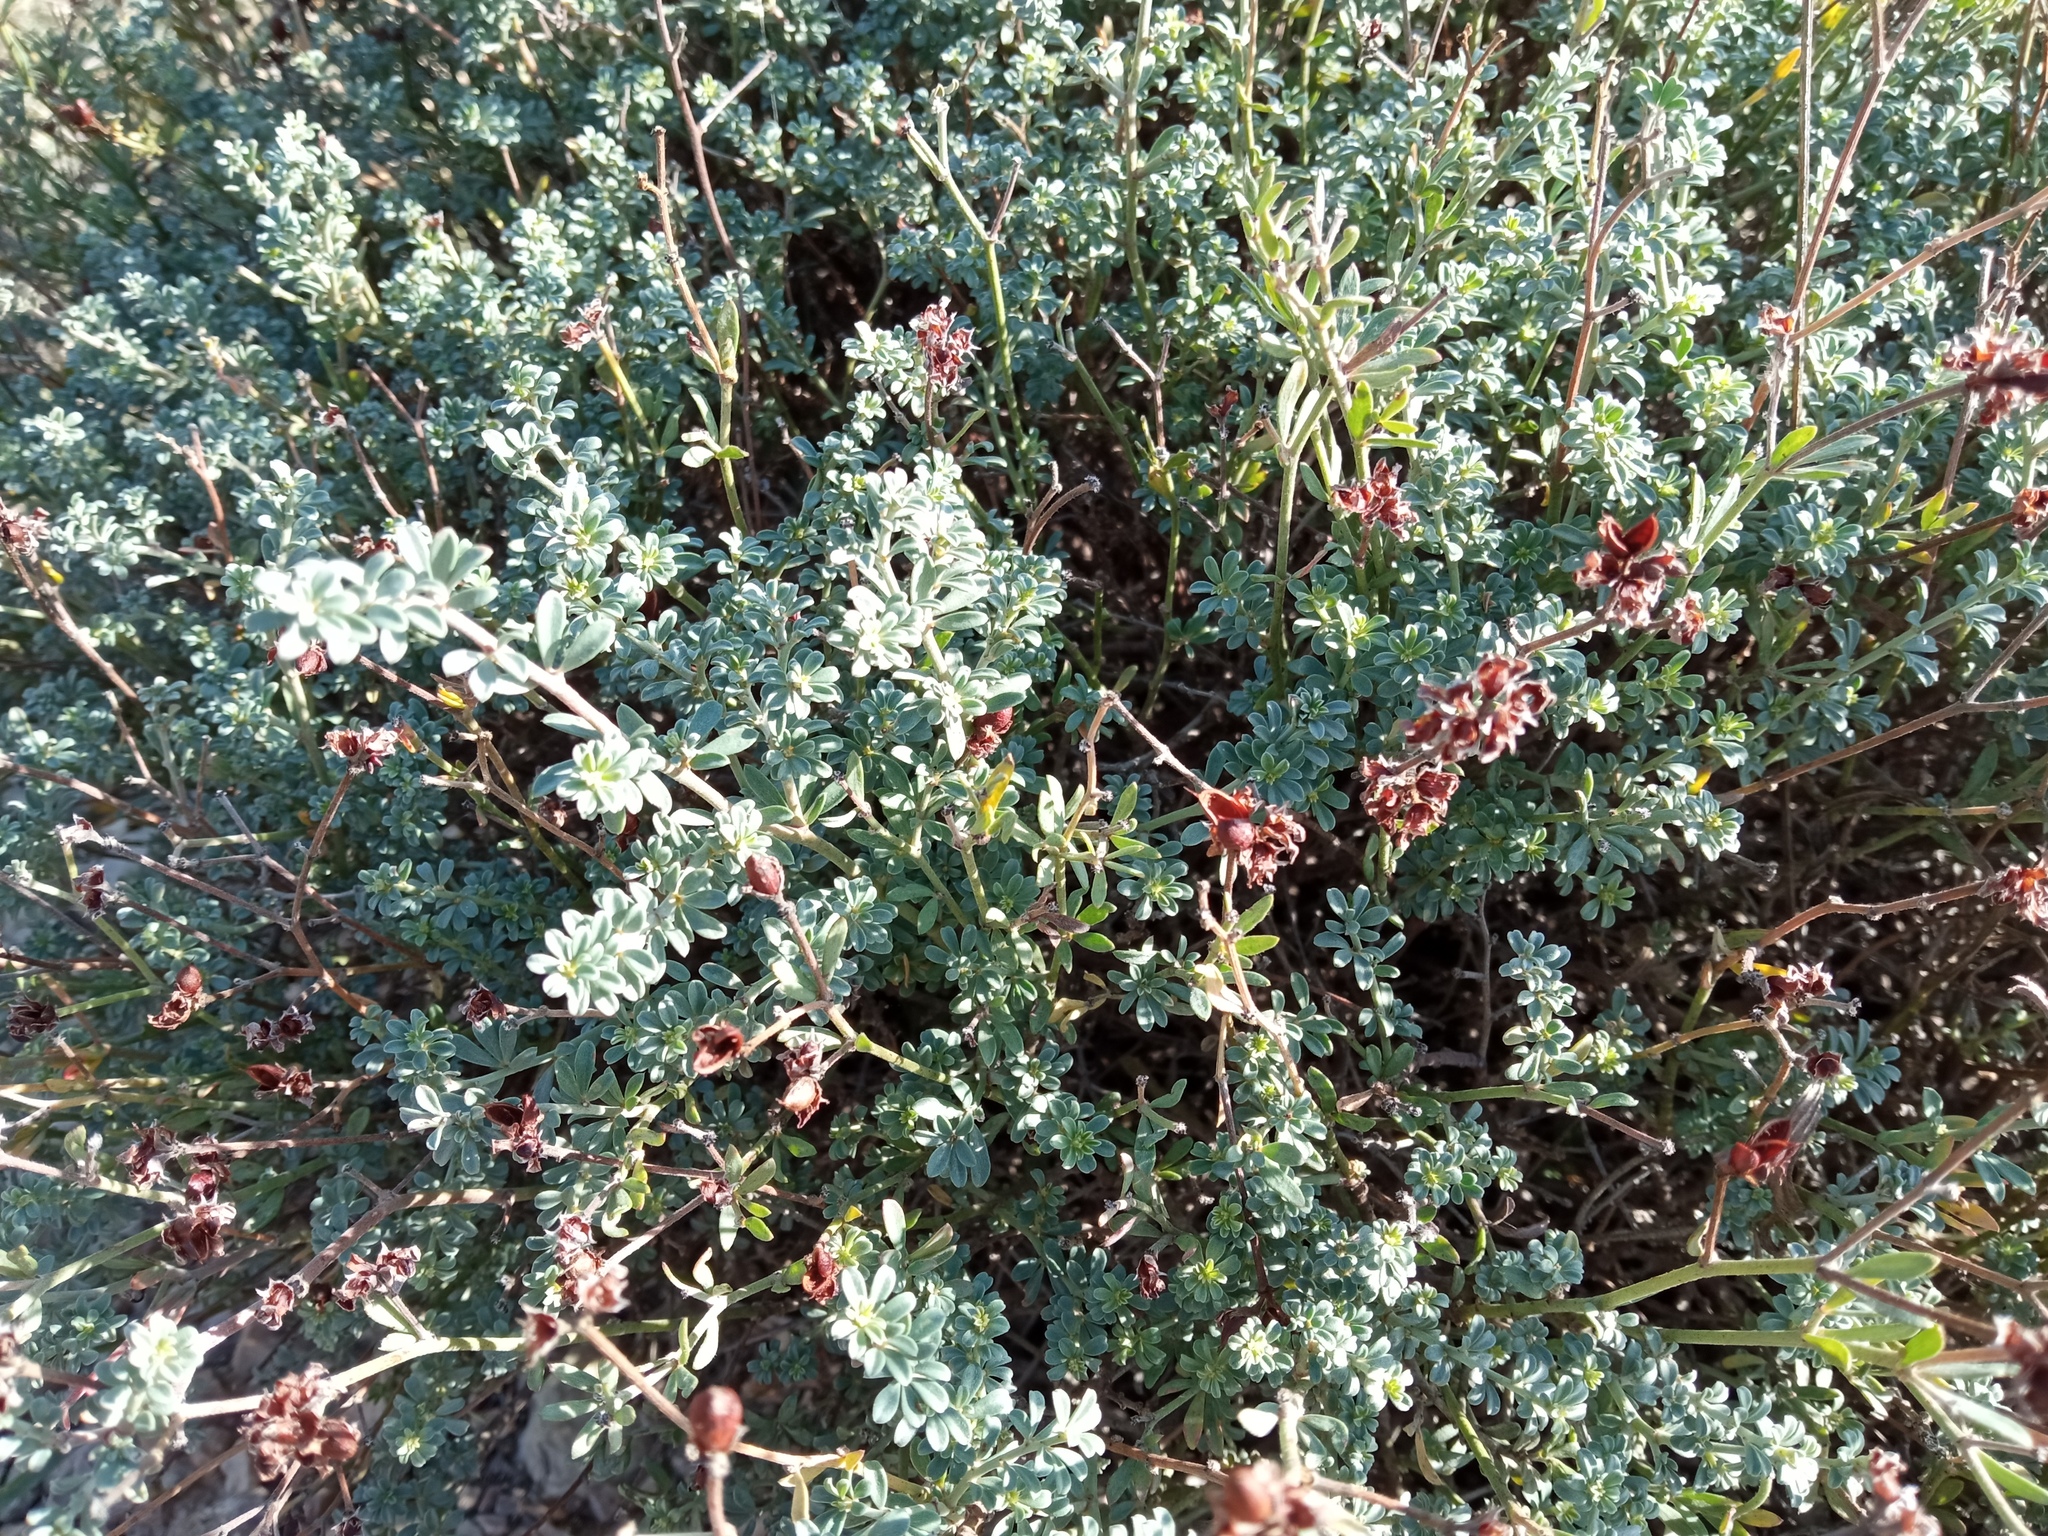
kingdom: Plantae
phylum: Tracheophyta
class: Magnoliopsida
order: Fabales
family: Fabaceae
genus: Lotus
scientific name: Lotus dorycnium
